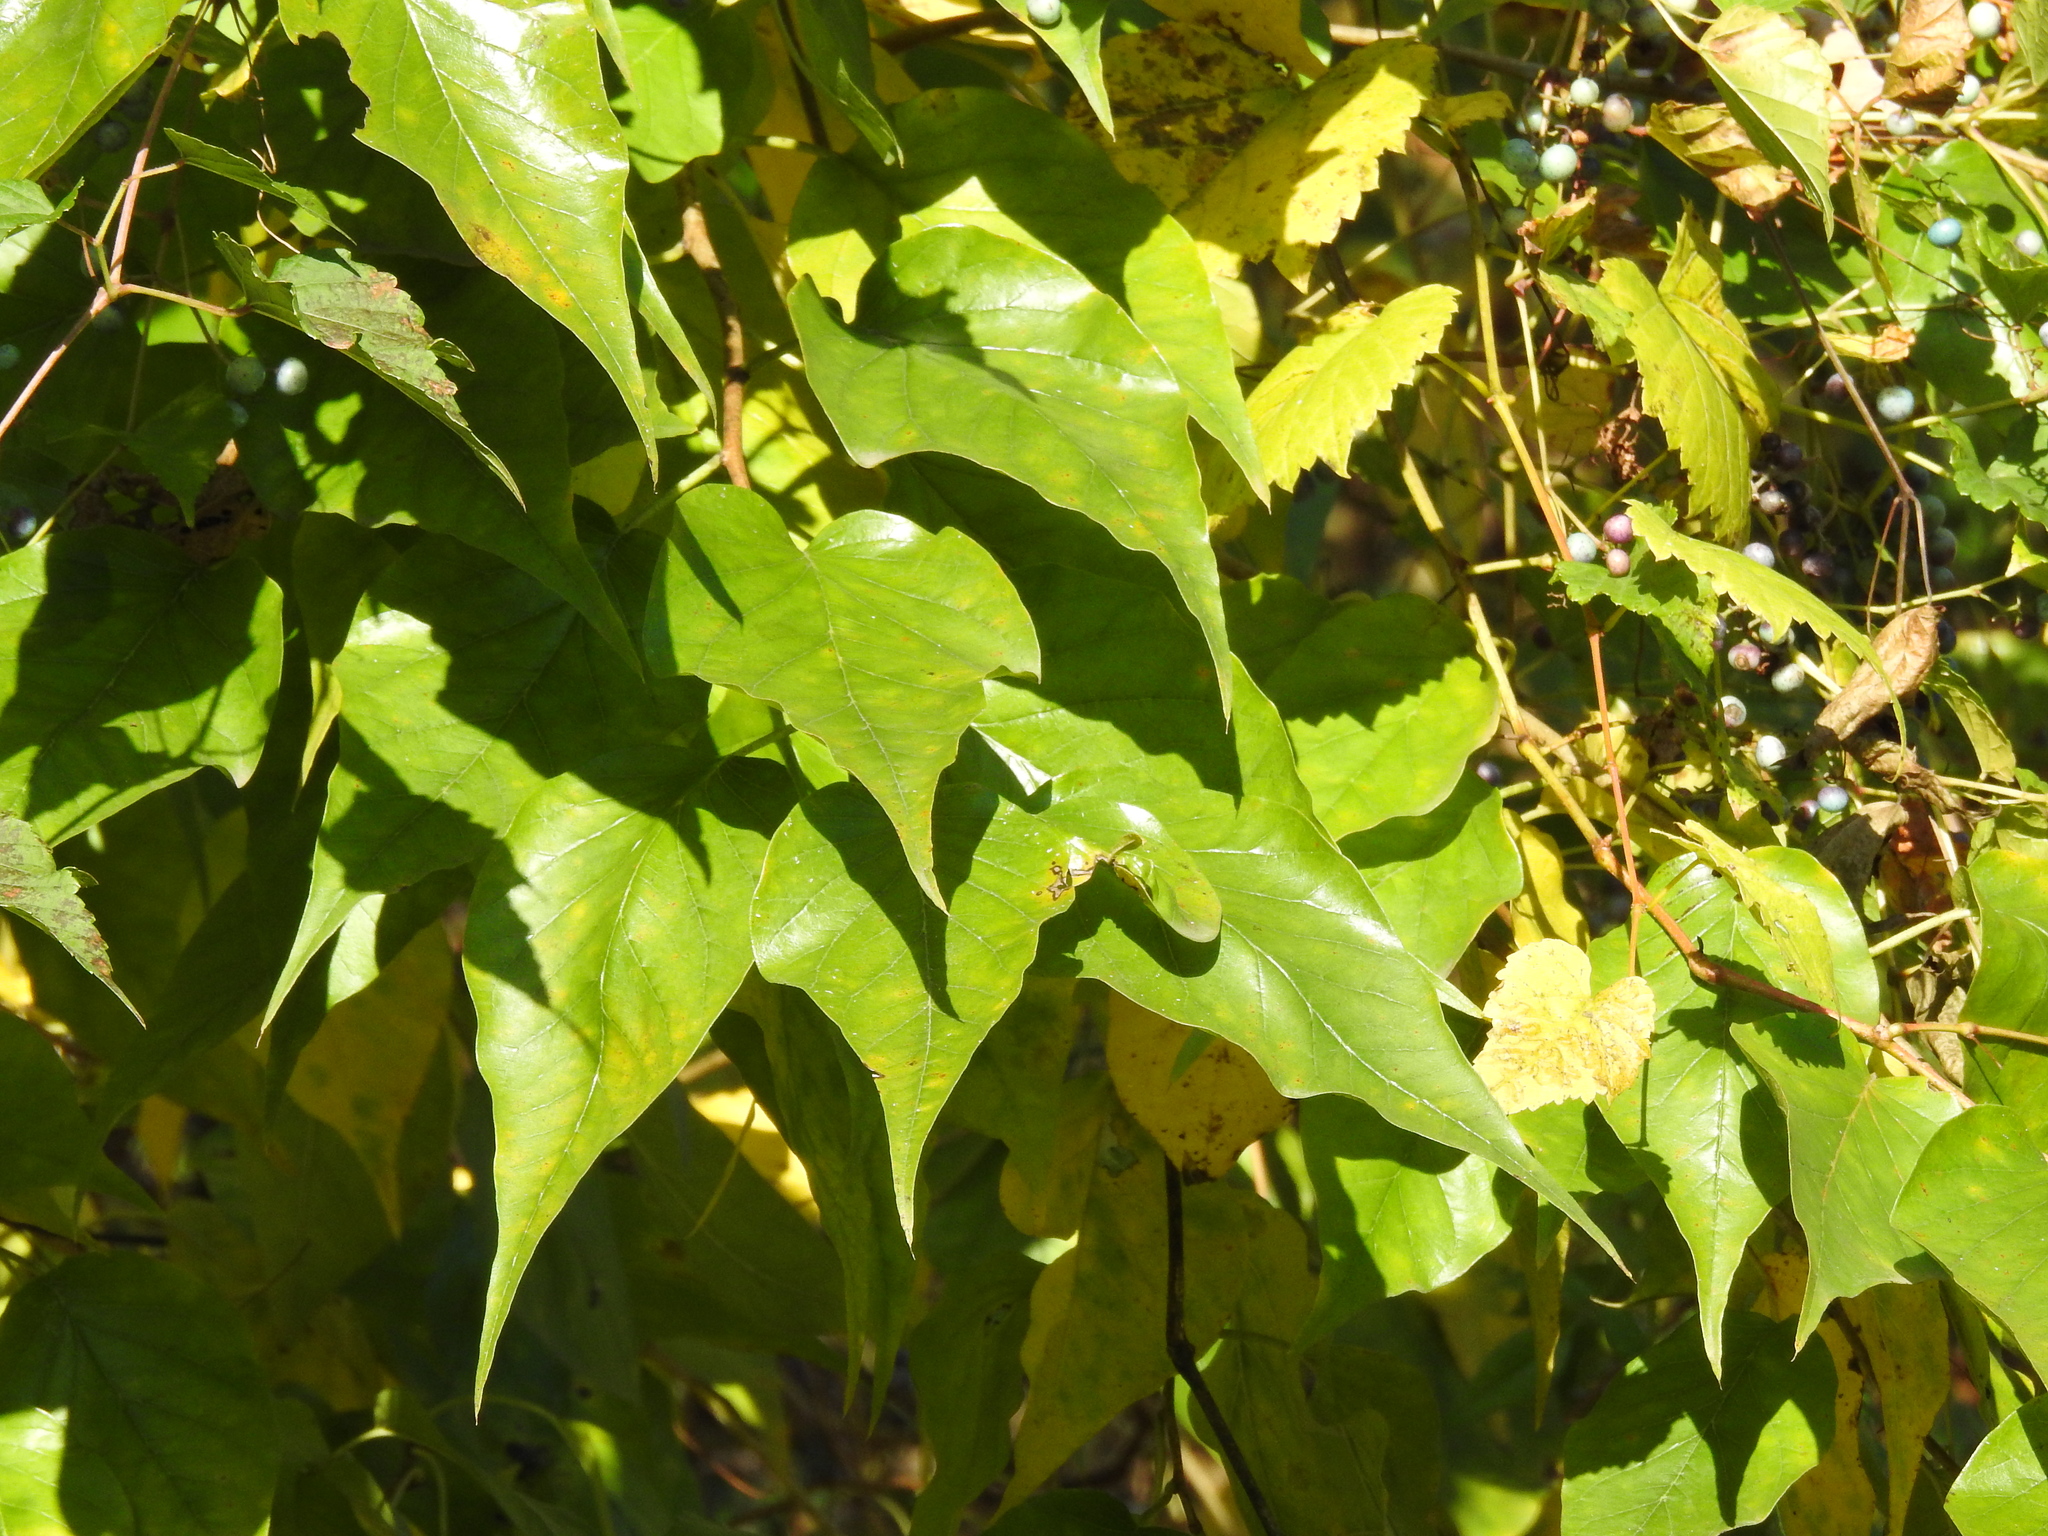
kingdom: Plantae
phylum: Tracheophyta
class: Magnoliopsida
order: Rosales
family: Moraceae
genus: Maclura
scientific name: Maclura pomifera
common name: Osage-orange
